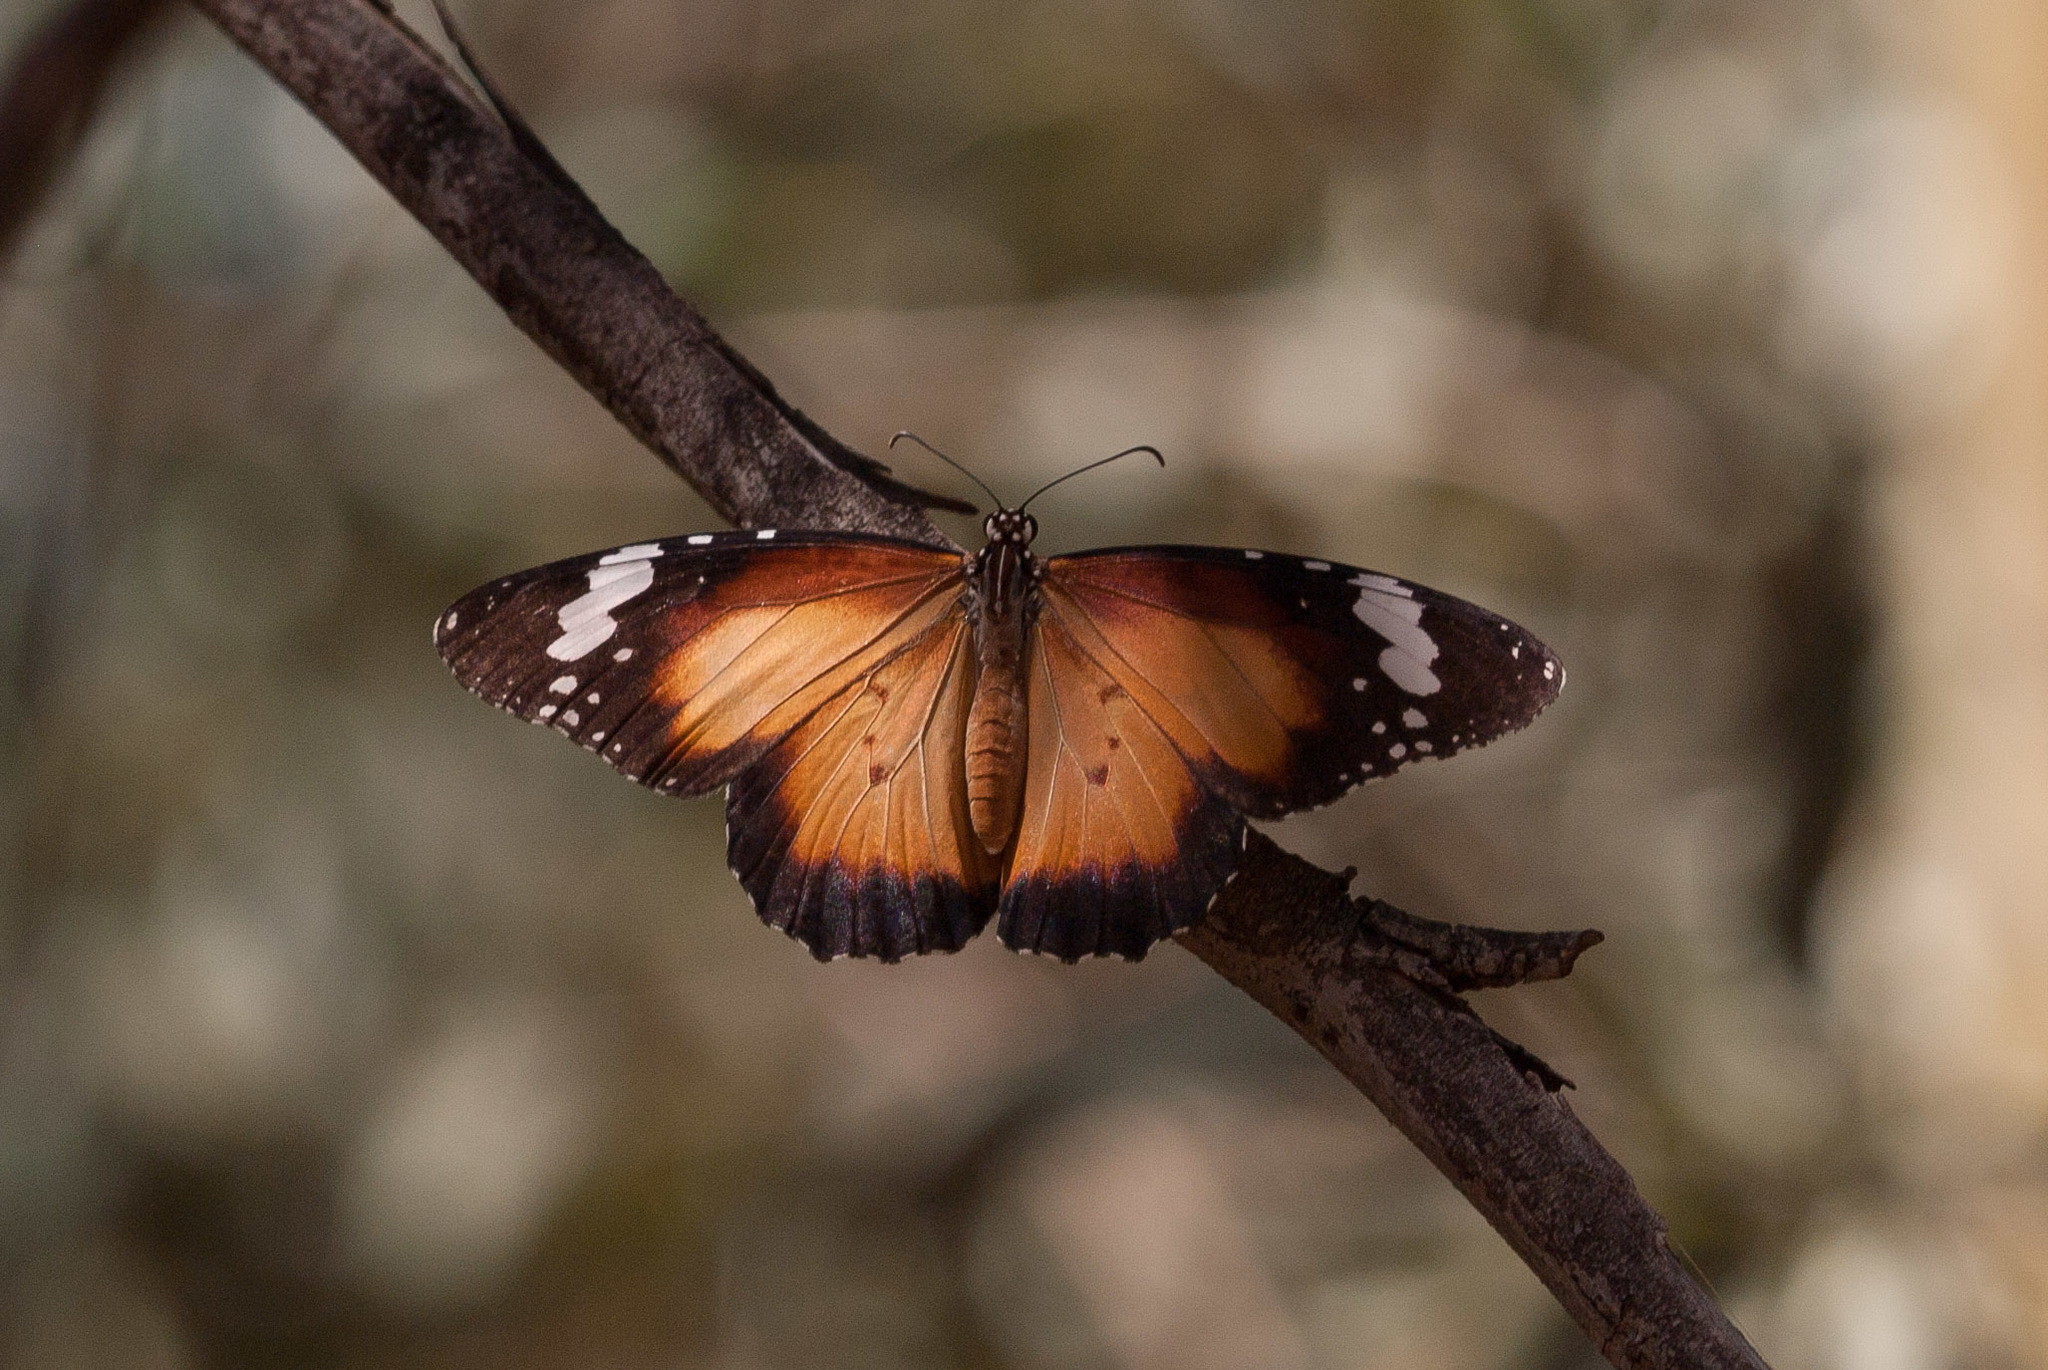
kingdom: Animalia
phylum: Arthropoda
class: Insecta
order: Lepidoptera
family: Nymphalidae
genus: Danaus
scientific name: Danaus chrysippus
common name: Plain tiger
